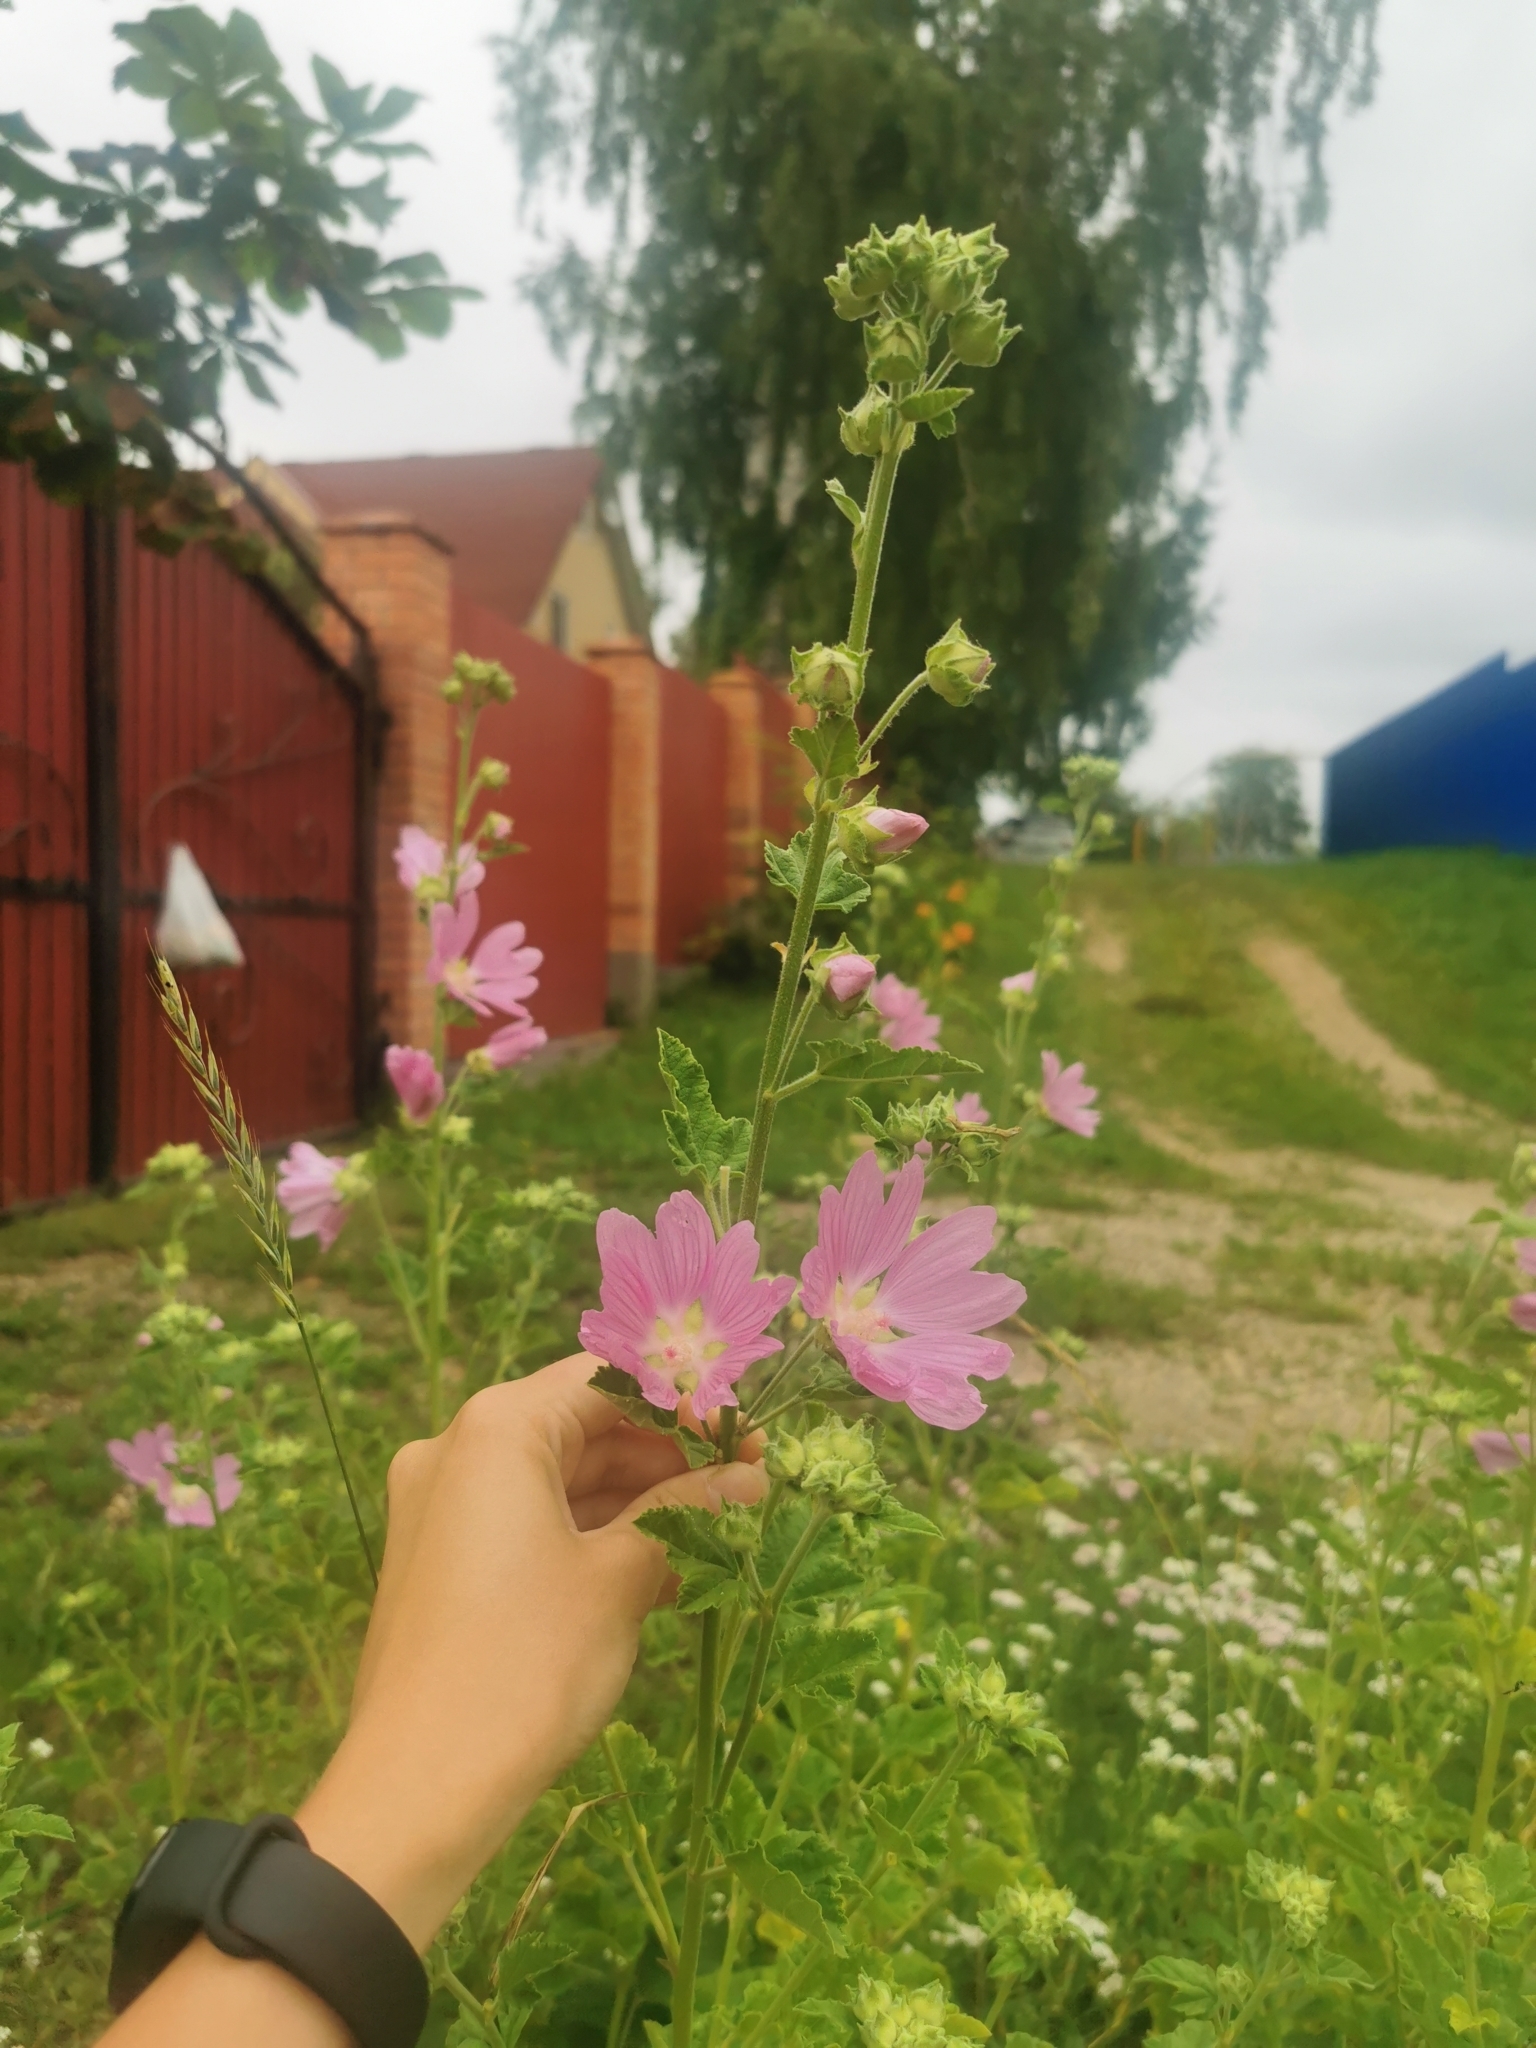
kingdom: Plantae
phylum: Tracheophyta
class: Magnoliopsida
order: Malvales
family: Malvaceae
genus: Malva
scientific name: Malva thuringiaca
